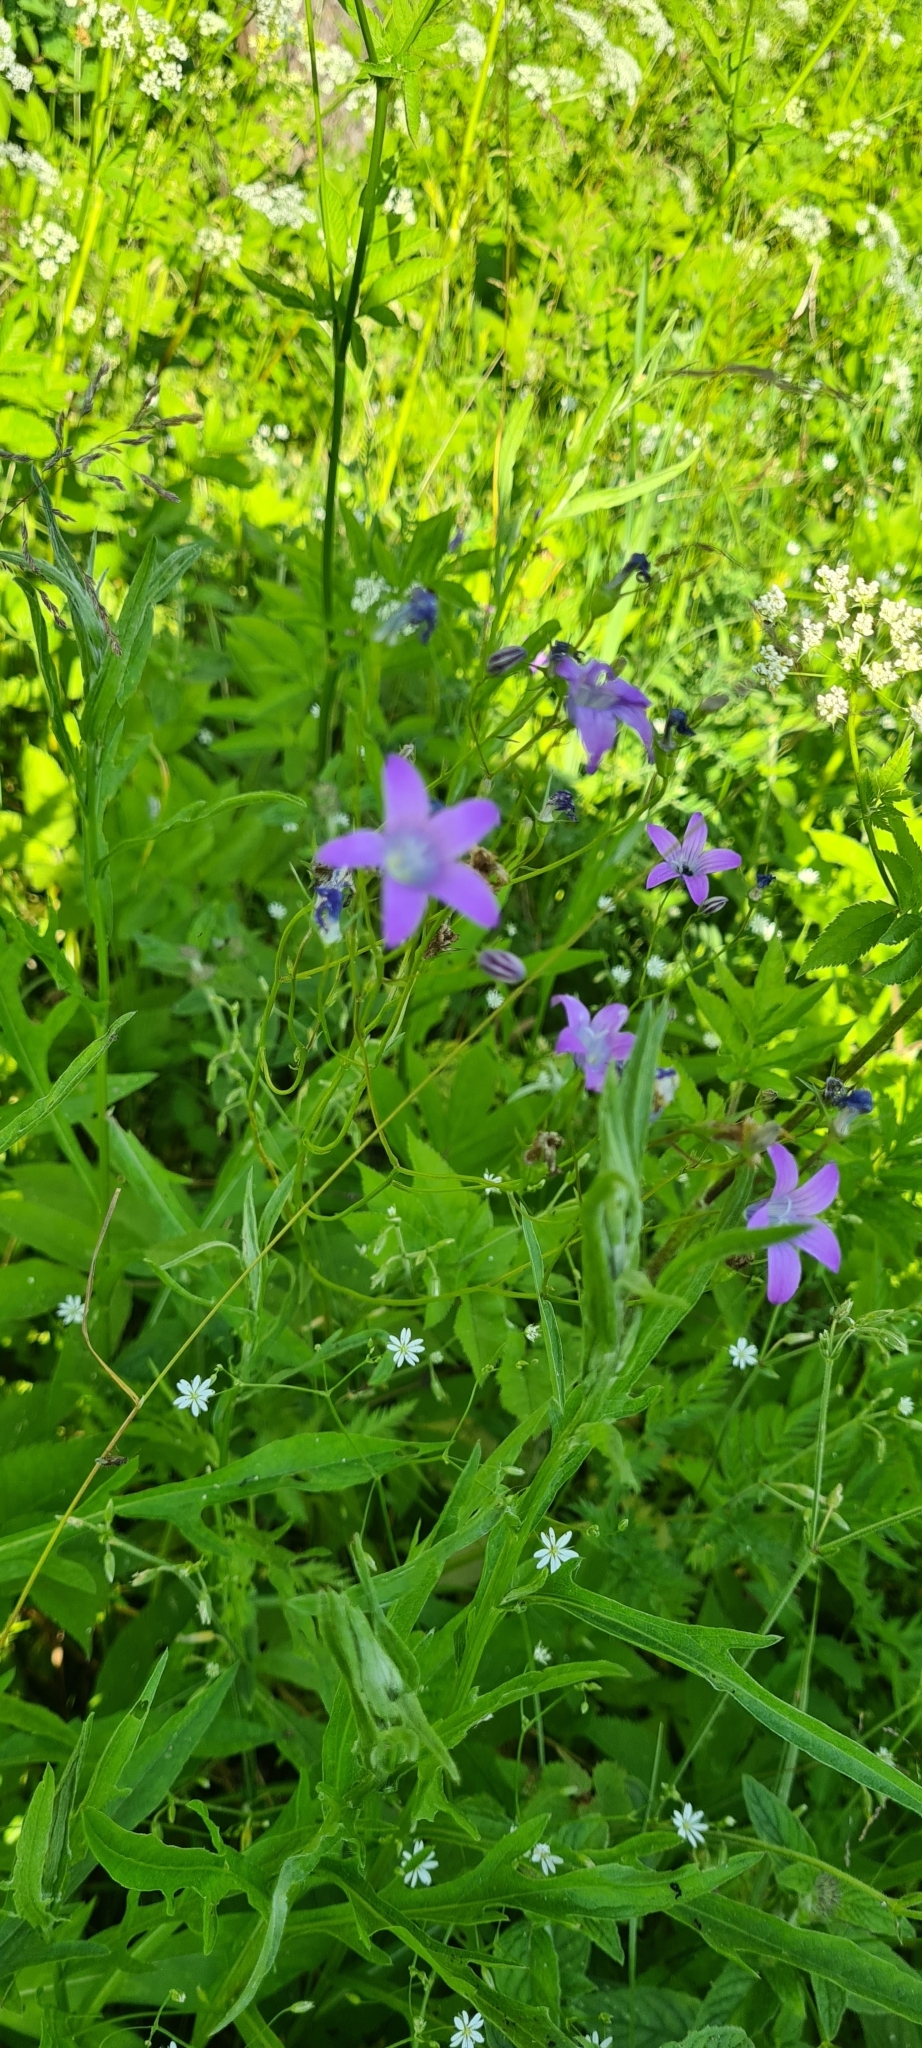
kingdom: Plantae
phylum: Tracheophyta
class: Magnoliopsida
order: Asterales
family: Campanulaceae
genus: Campanula
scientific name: Campanula patula
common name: Spreading bellflower
